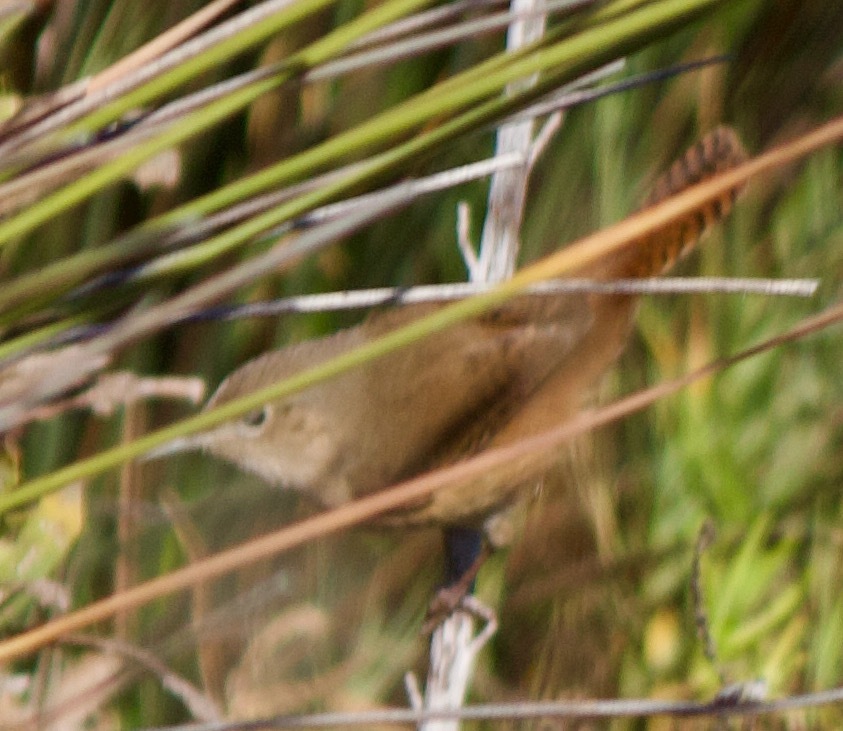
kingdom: Animalia
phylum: Chordata
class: Aves
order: Passeriformes
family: Troglodytidae
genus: Troglodytes
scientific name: Troglodytes aedon
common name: House wren
